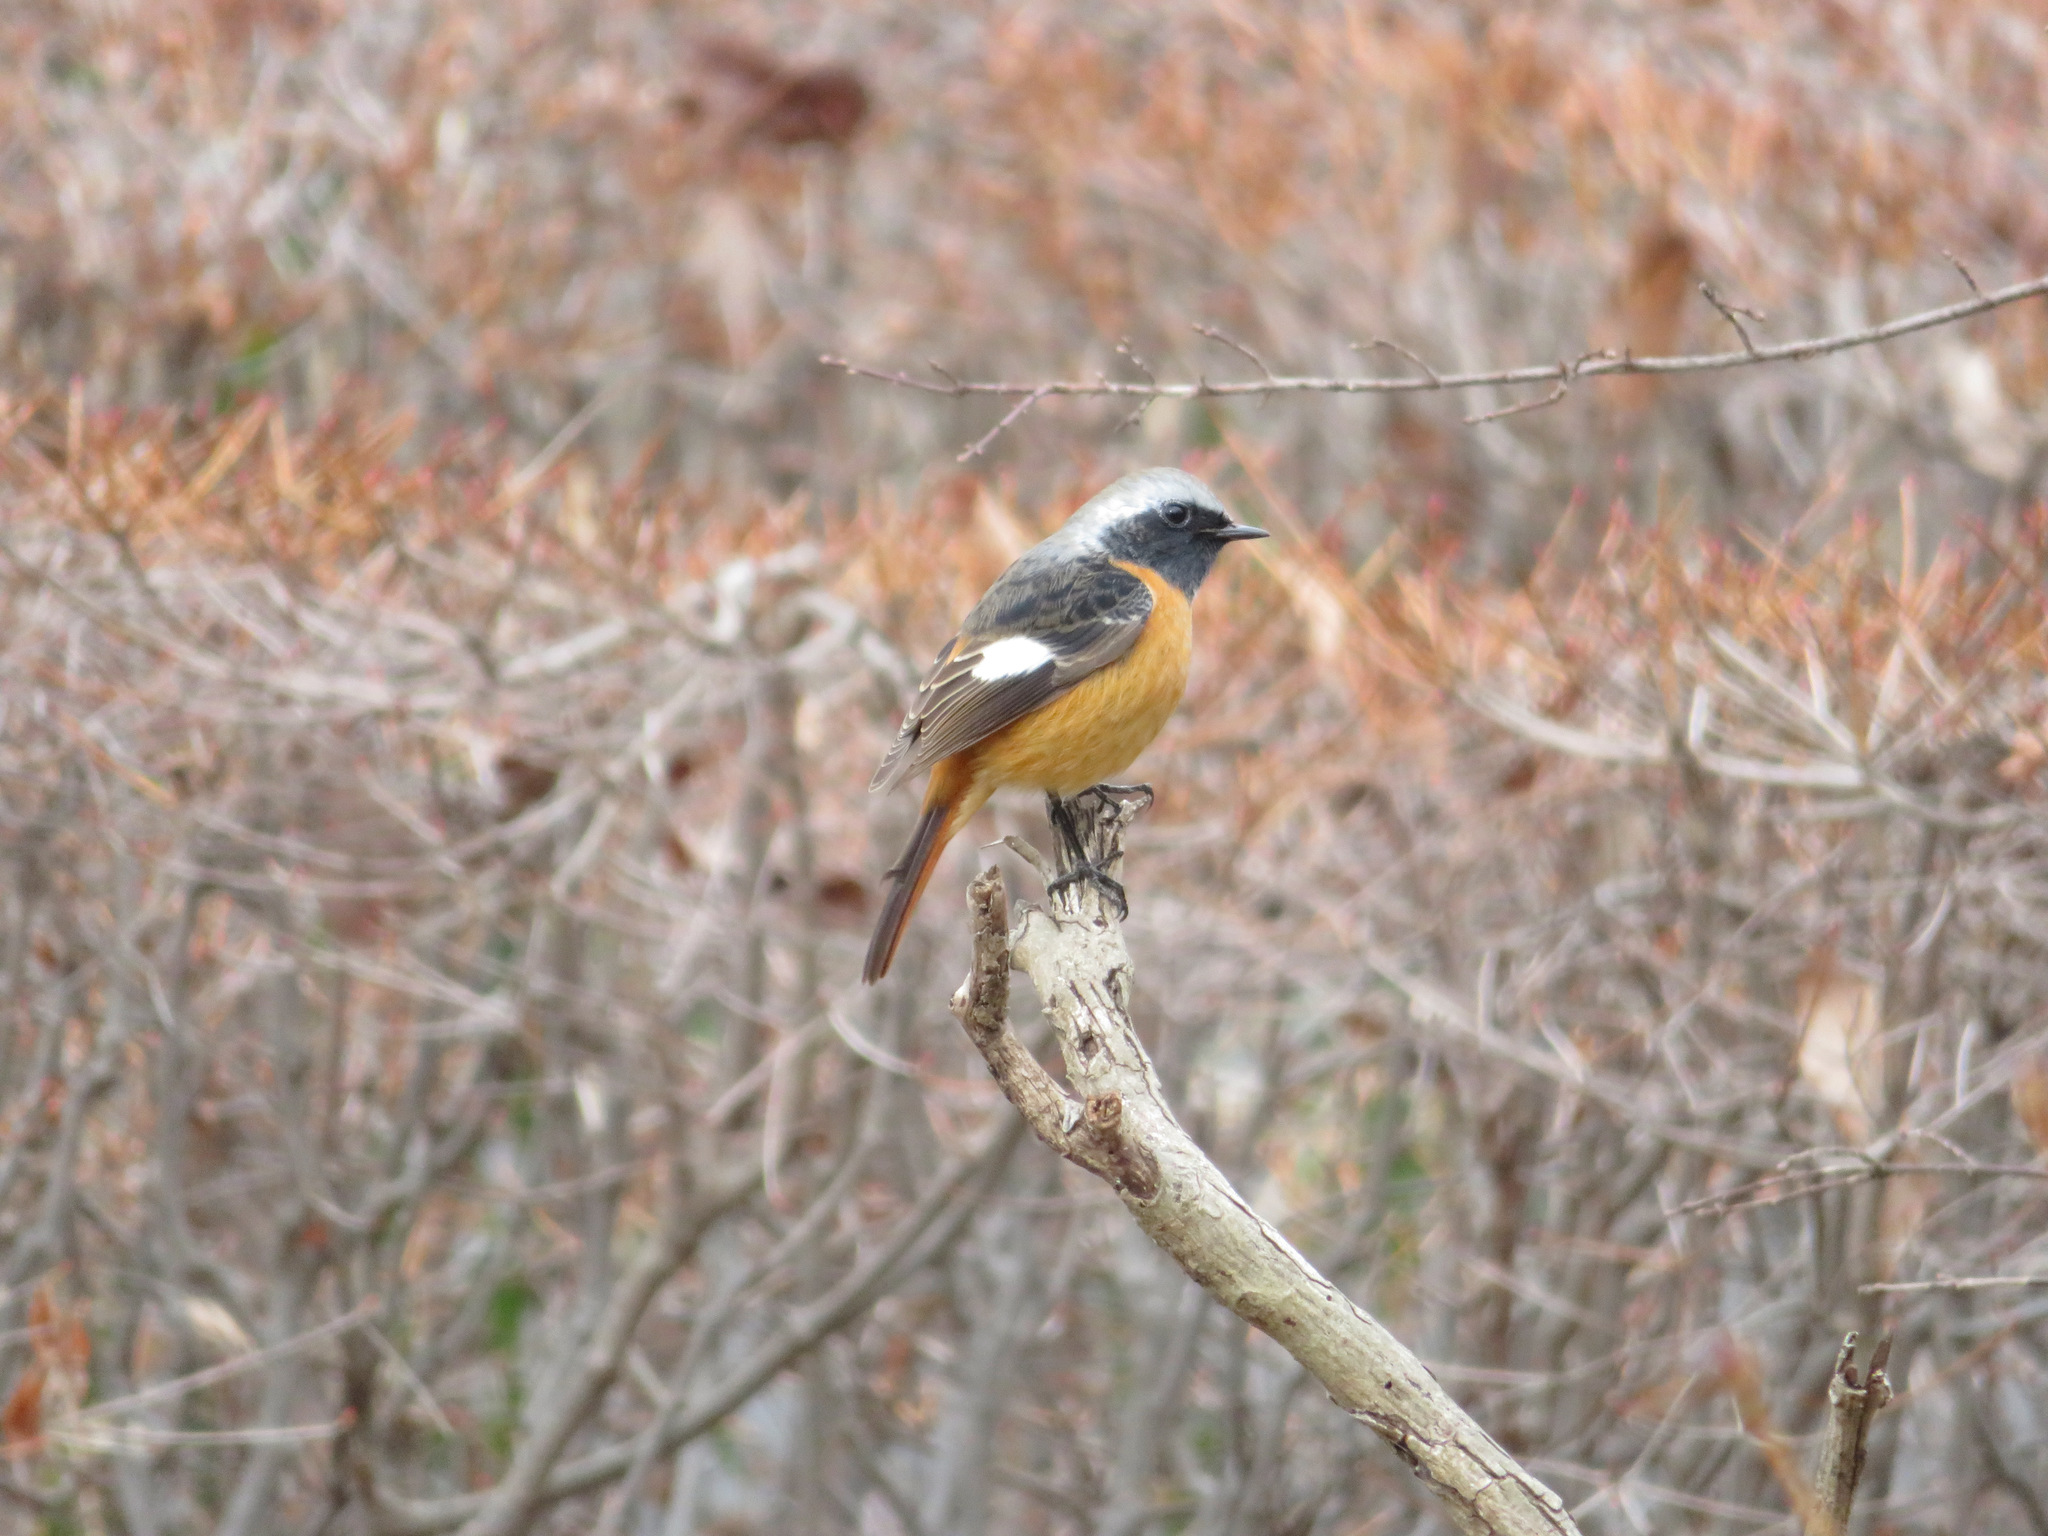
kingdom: Animalia
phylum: Chordata
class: Aves
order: Passeriformes
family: Muscicapidae
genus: Phoenicurus
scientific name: Phoenicurus auroreus
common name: Daurian redstart
